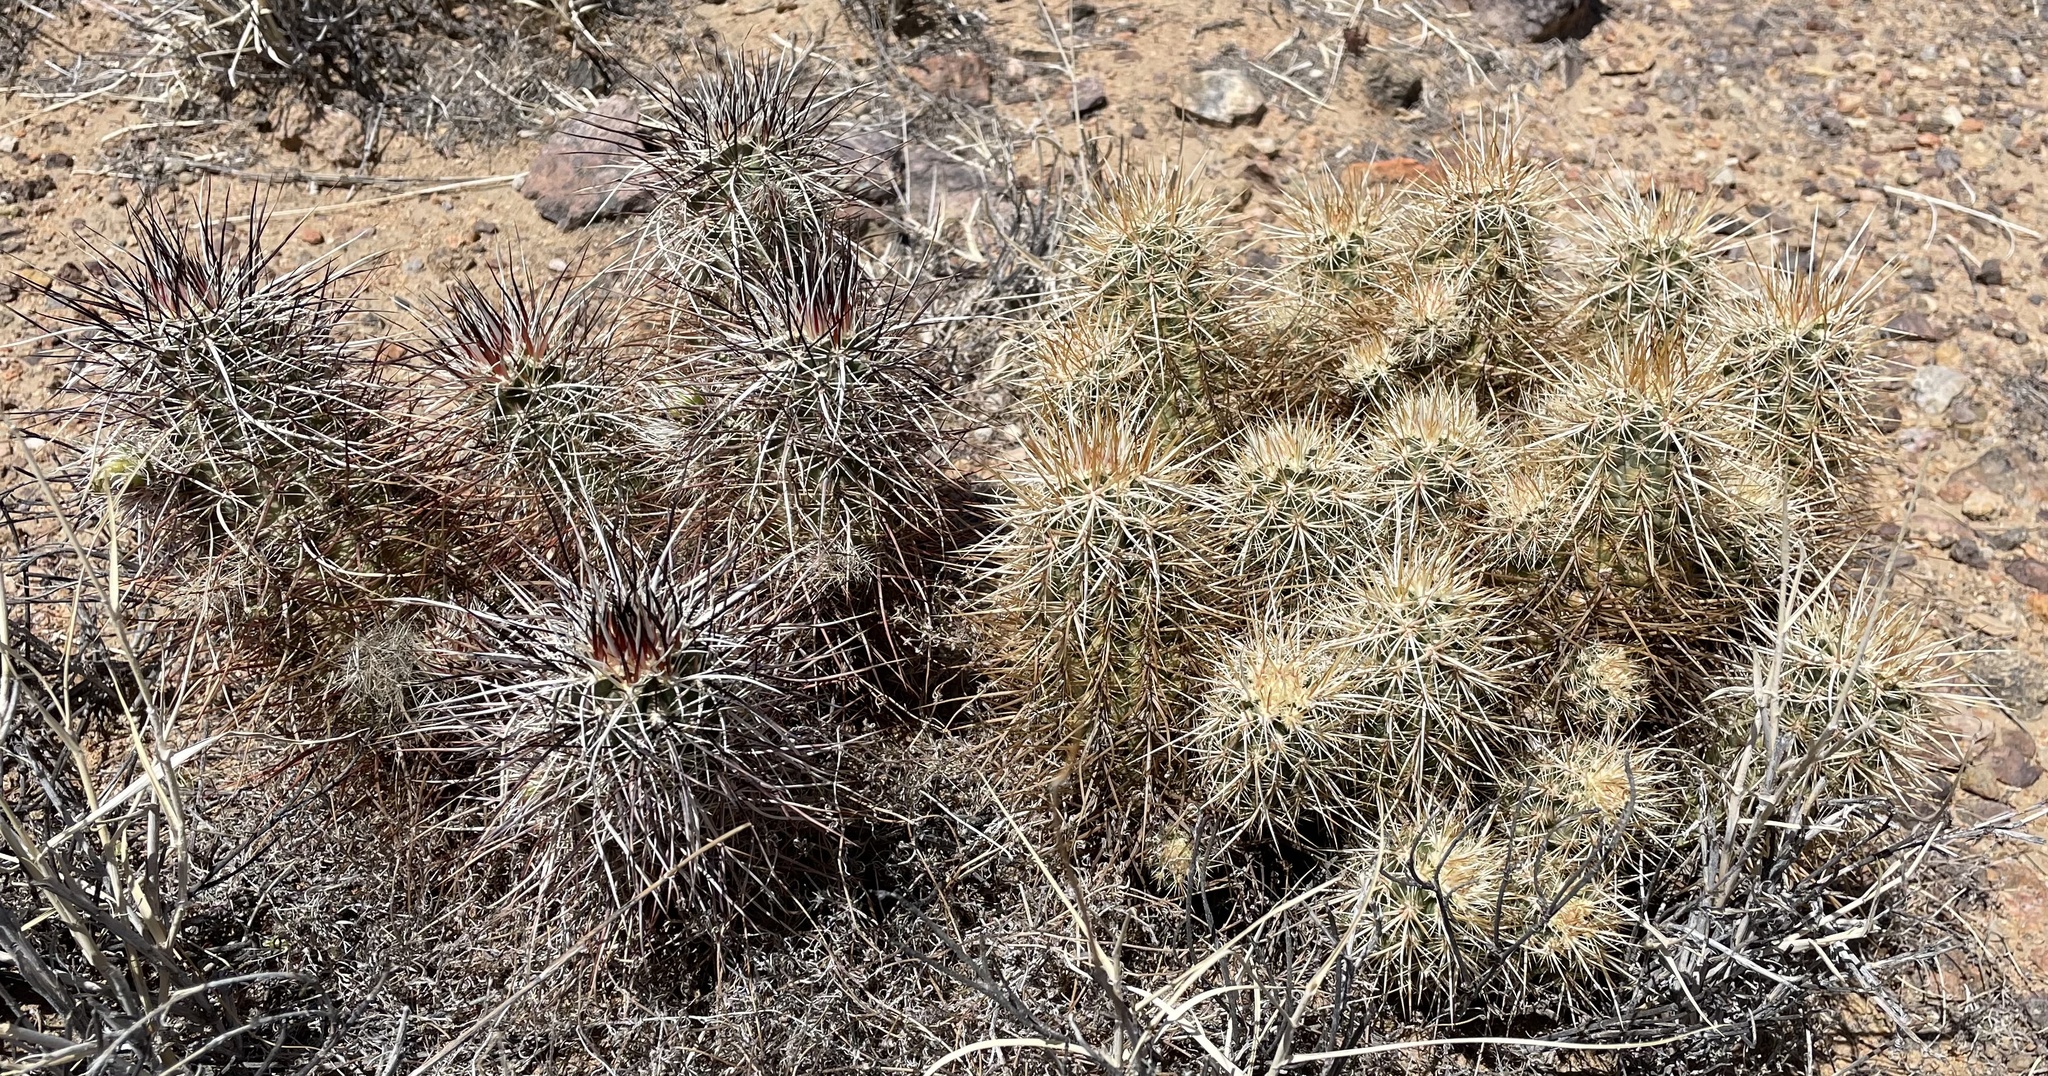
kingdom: Plantae
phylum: Tracheophyta
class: Magnoliopsida
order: Caryophyllales
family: Cactaceae
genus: Echinocereus
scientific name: Echinocereus engelmannii
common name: Engelmann's hedgehog cactus
